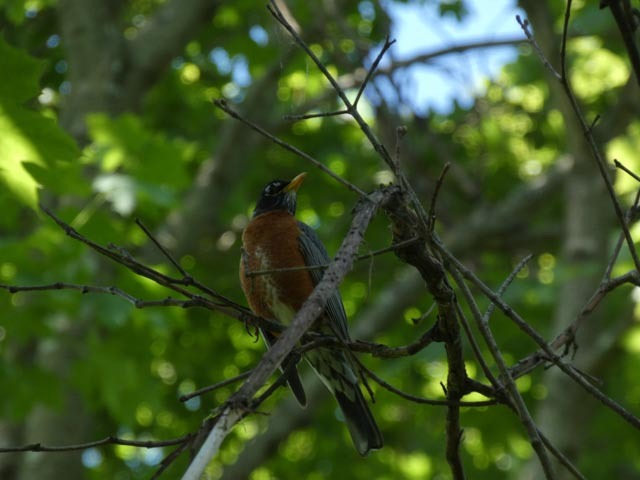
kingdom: Animalia
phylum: Chordata
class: Aves
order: Passeriformes
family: Turdidae
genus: Turdus
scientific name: Turdus migratorius
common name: American robin
